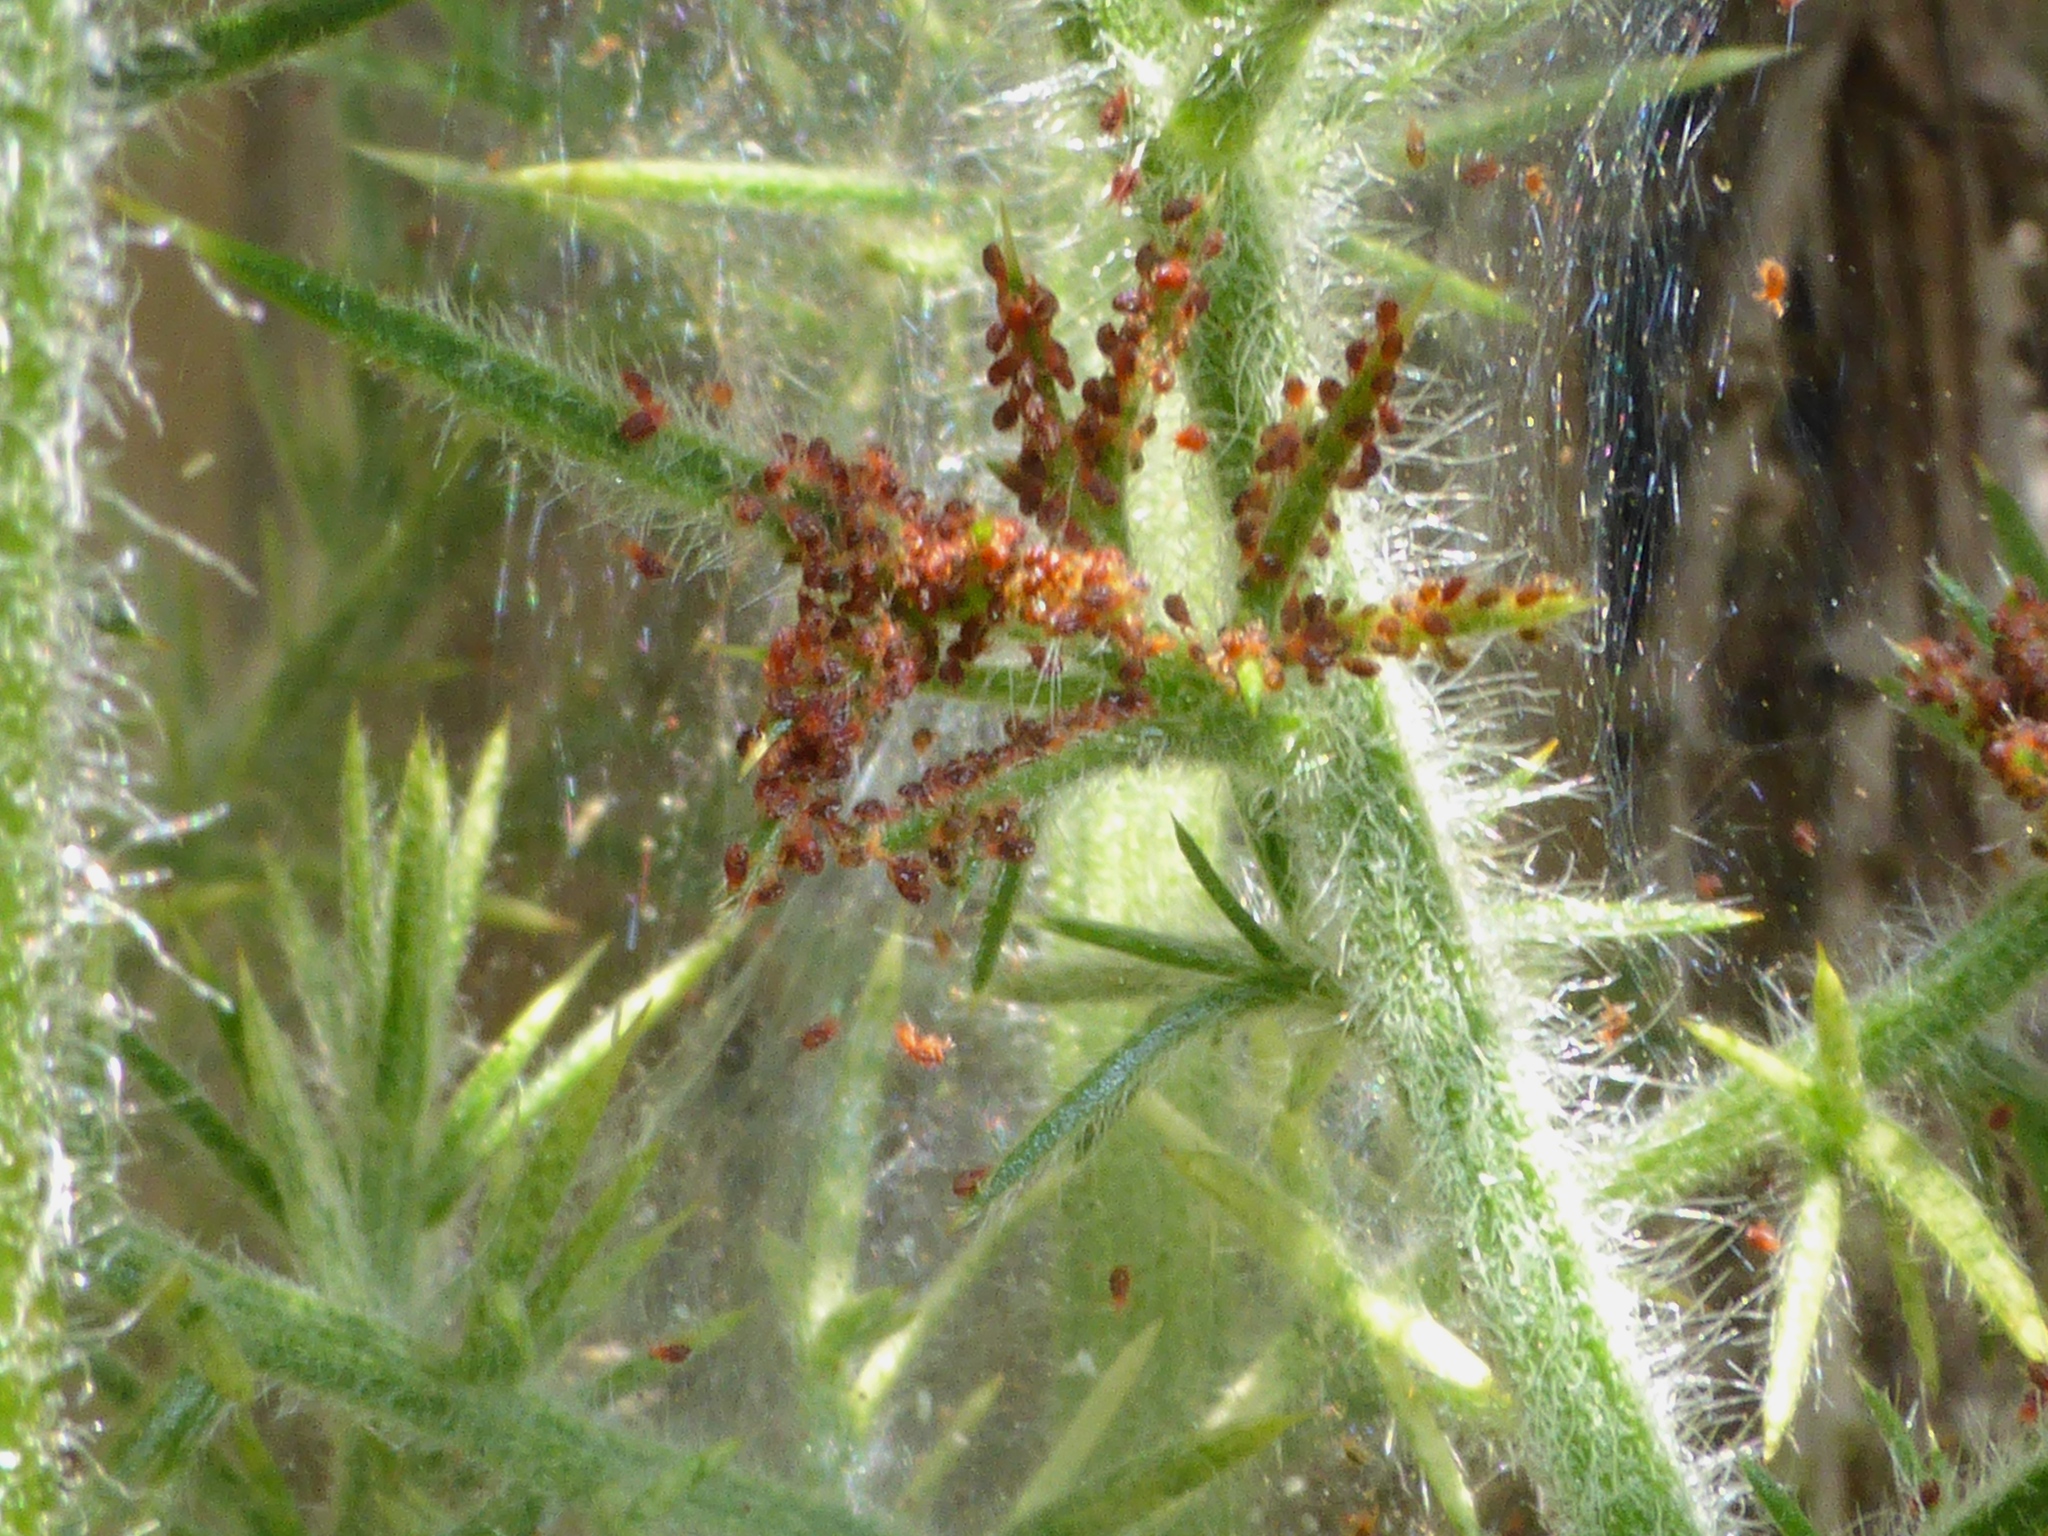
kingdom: Animalia
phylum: Arthropoda
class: Arachnida
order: Trombidiformes
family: Tetranychidae
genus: Tetranychus
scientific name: Tetranychus lintearius
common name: Gorse spider mite
